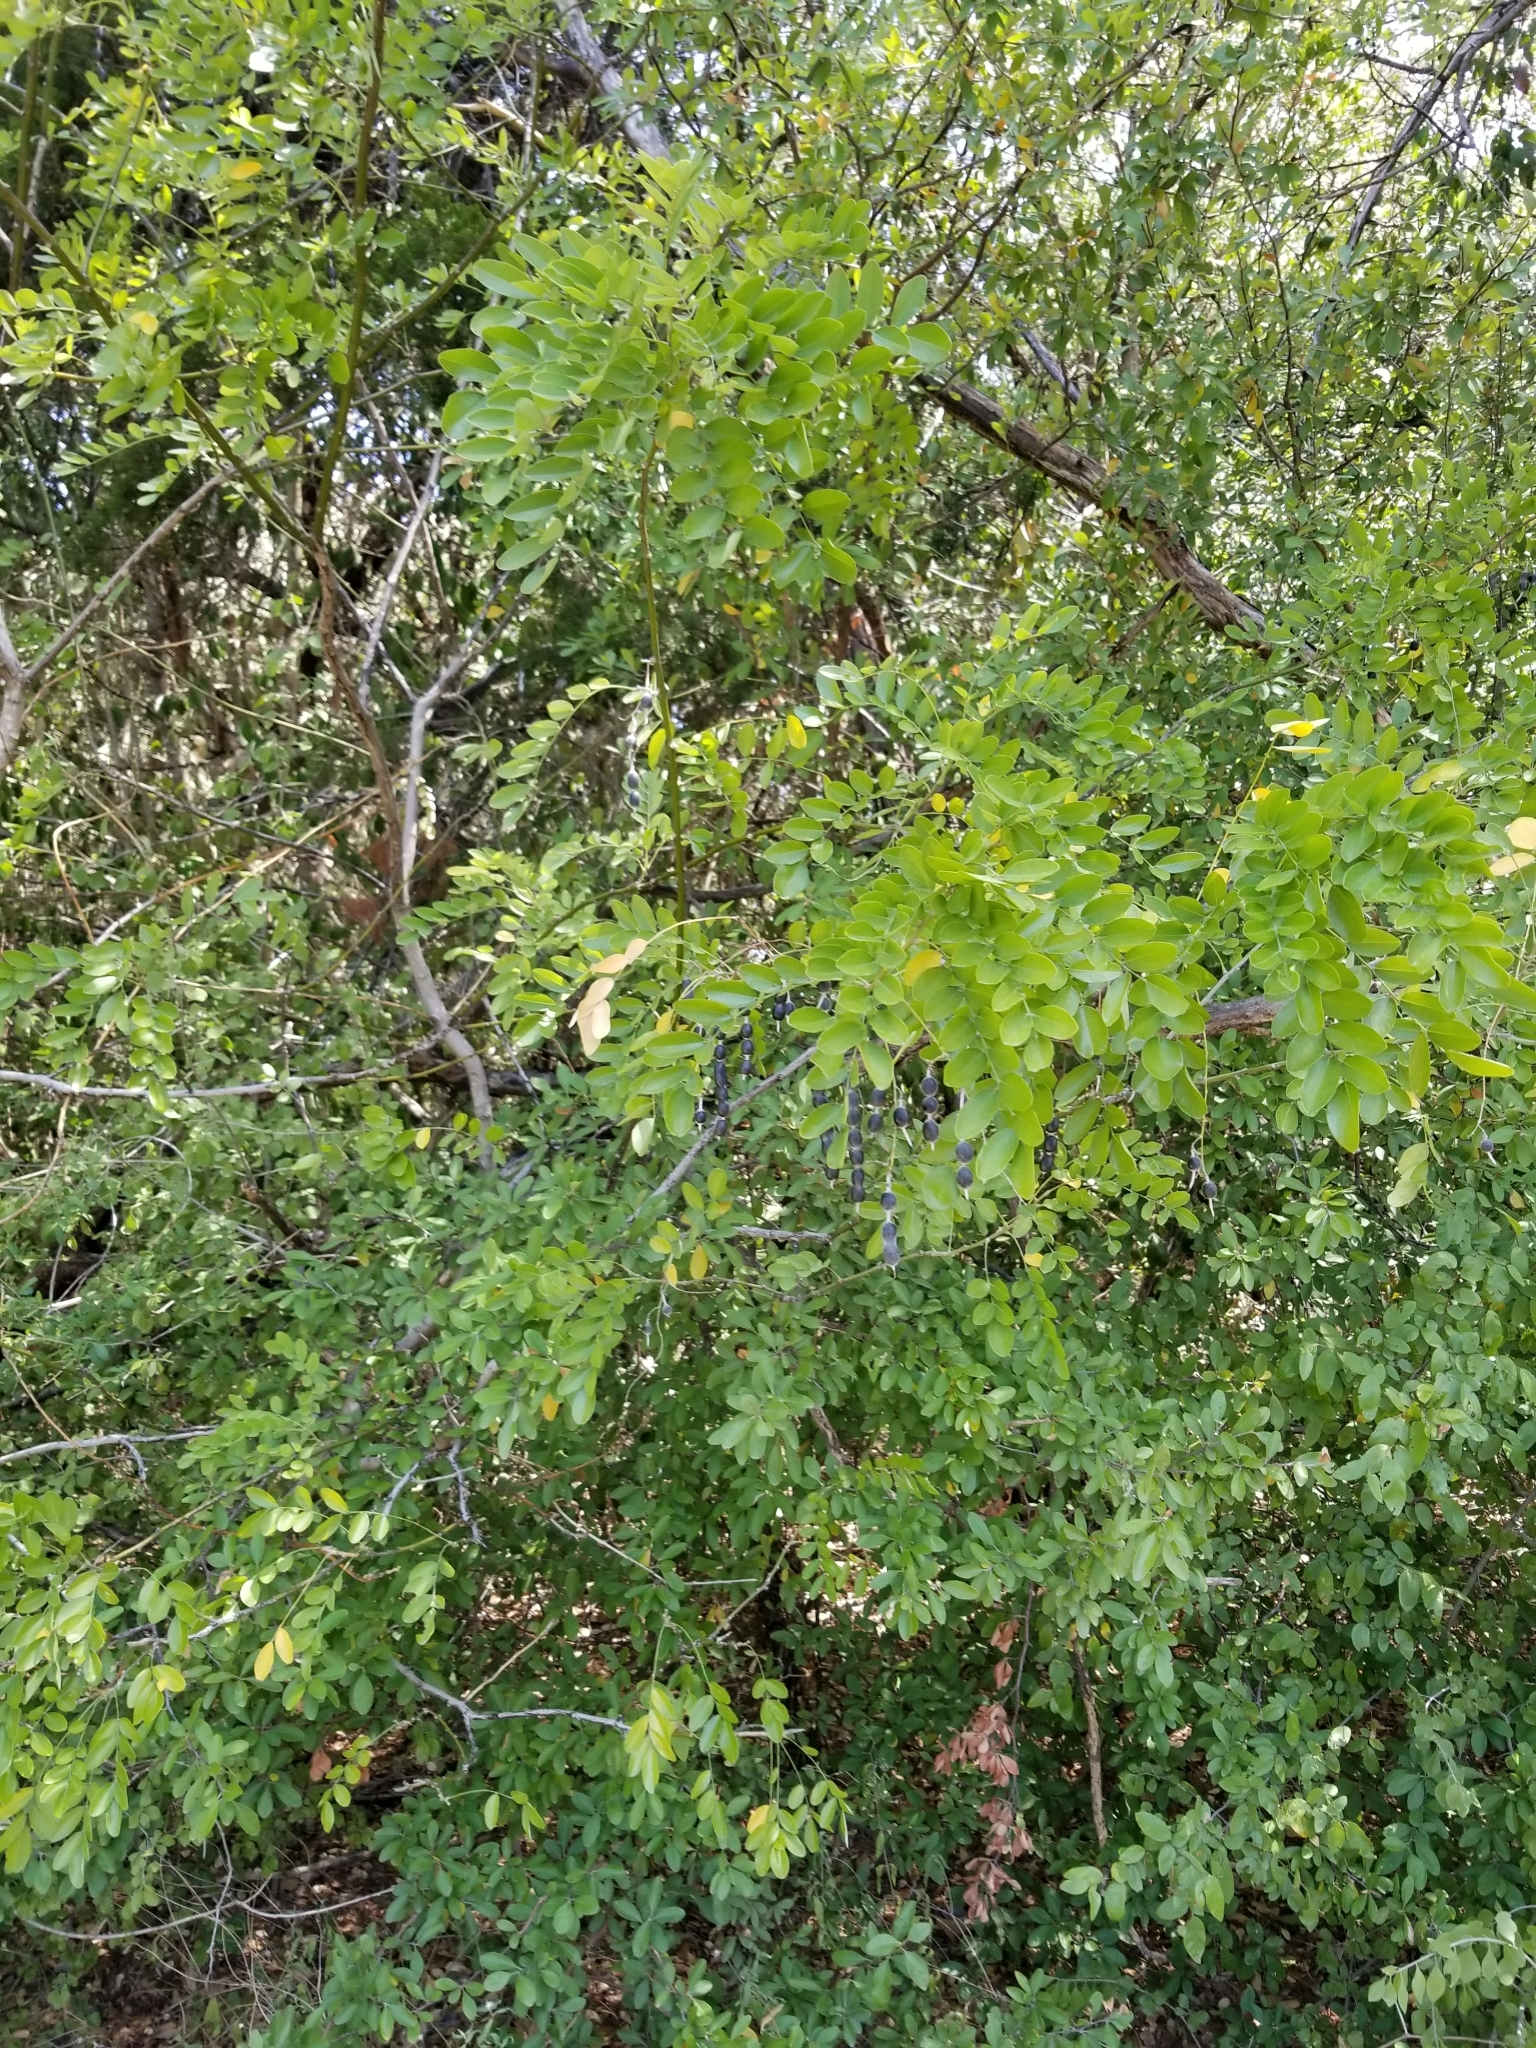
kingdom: Plantae
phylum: Tracheophyta
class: Magnoliopsida
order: Fabales
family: Fabaceae
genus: Styphnolobium
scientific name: Styphnolobium affine
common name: Texas sophora
